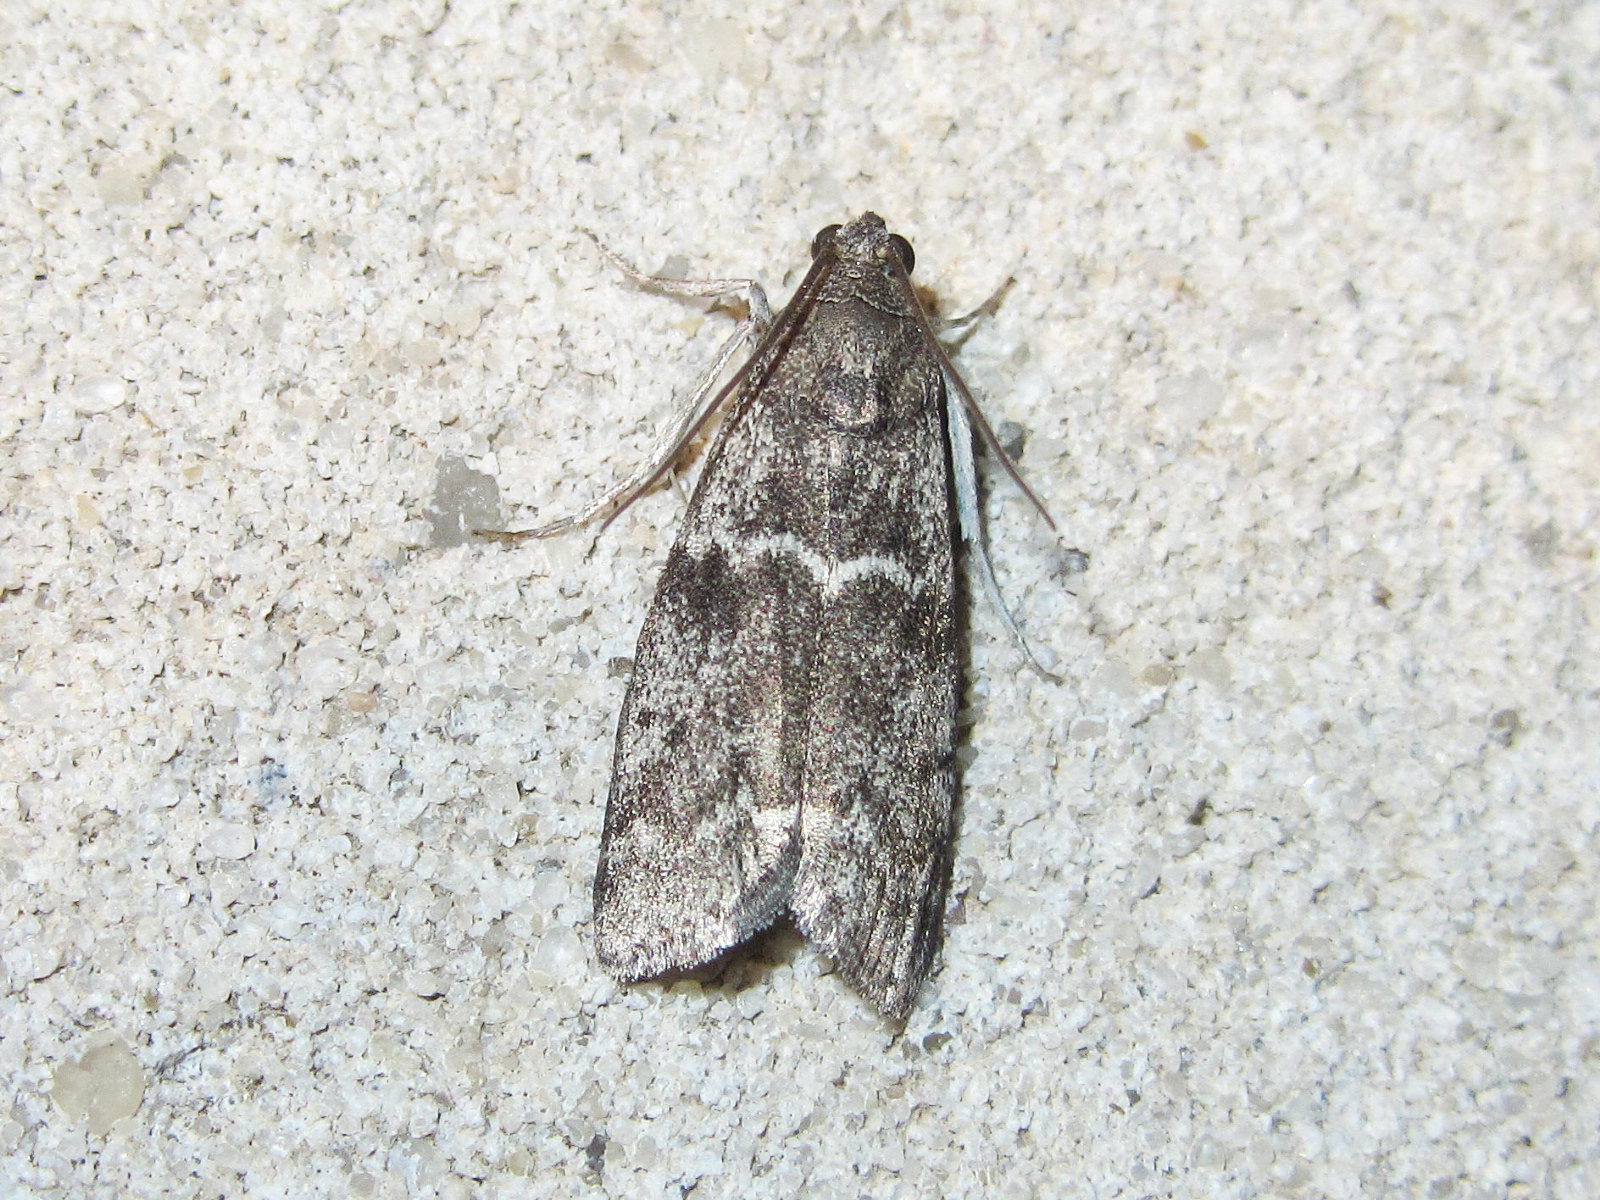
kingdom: Animalia
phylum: Arthropoda
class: Insecta
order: Lepidoptera
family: Pyralidae
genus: Apomyelois
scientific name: Apomyelois bistriatella
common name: Heath knot-horn
